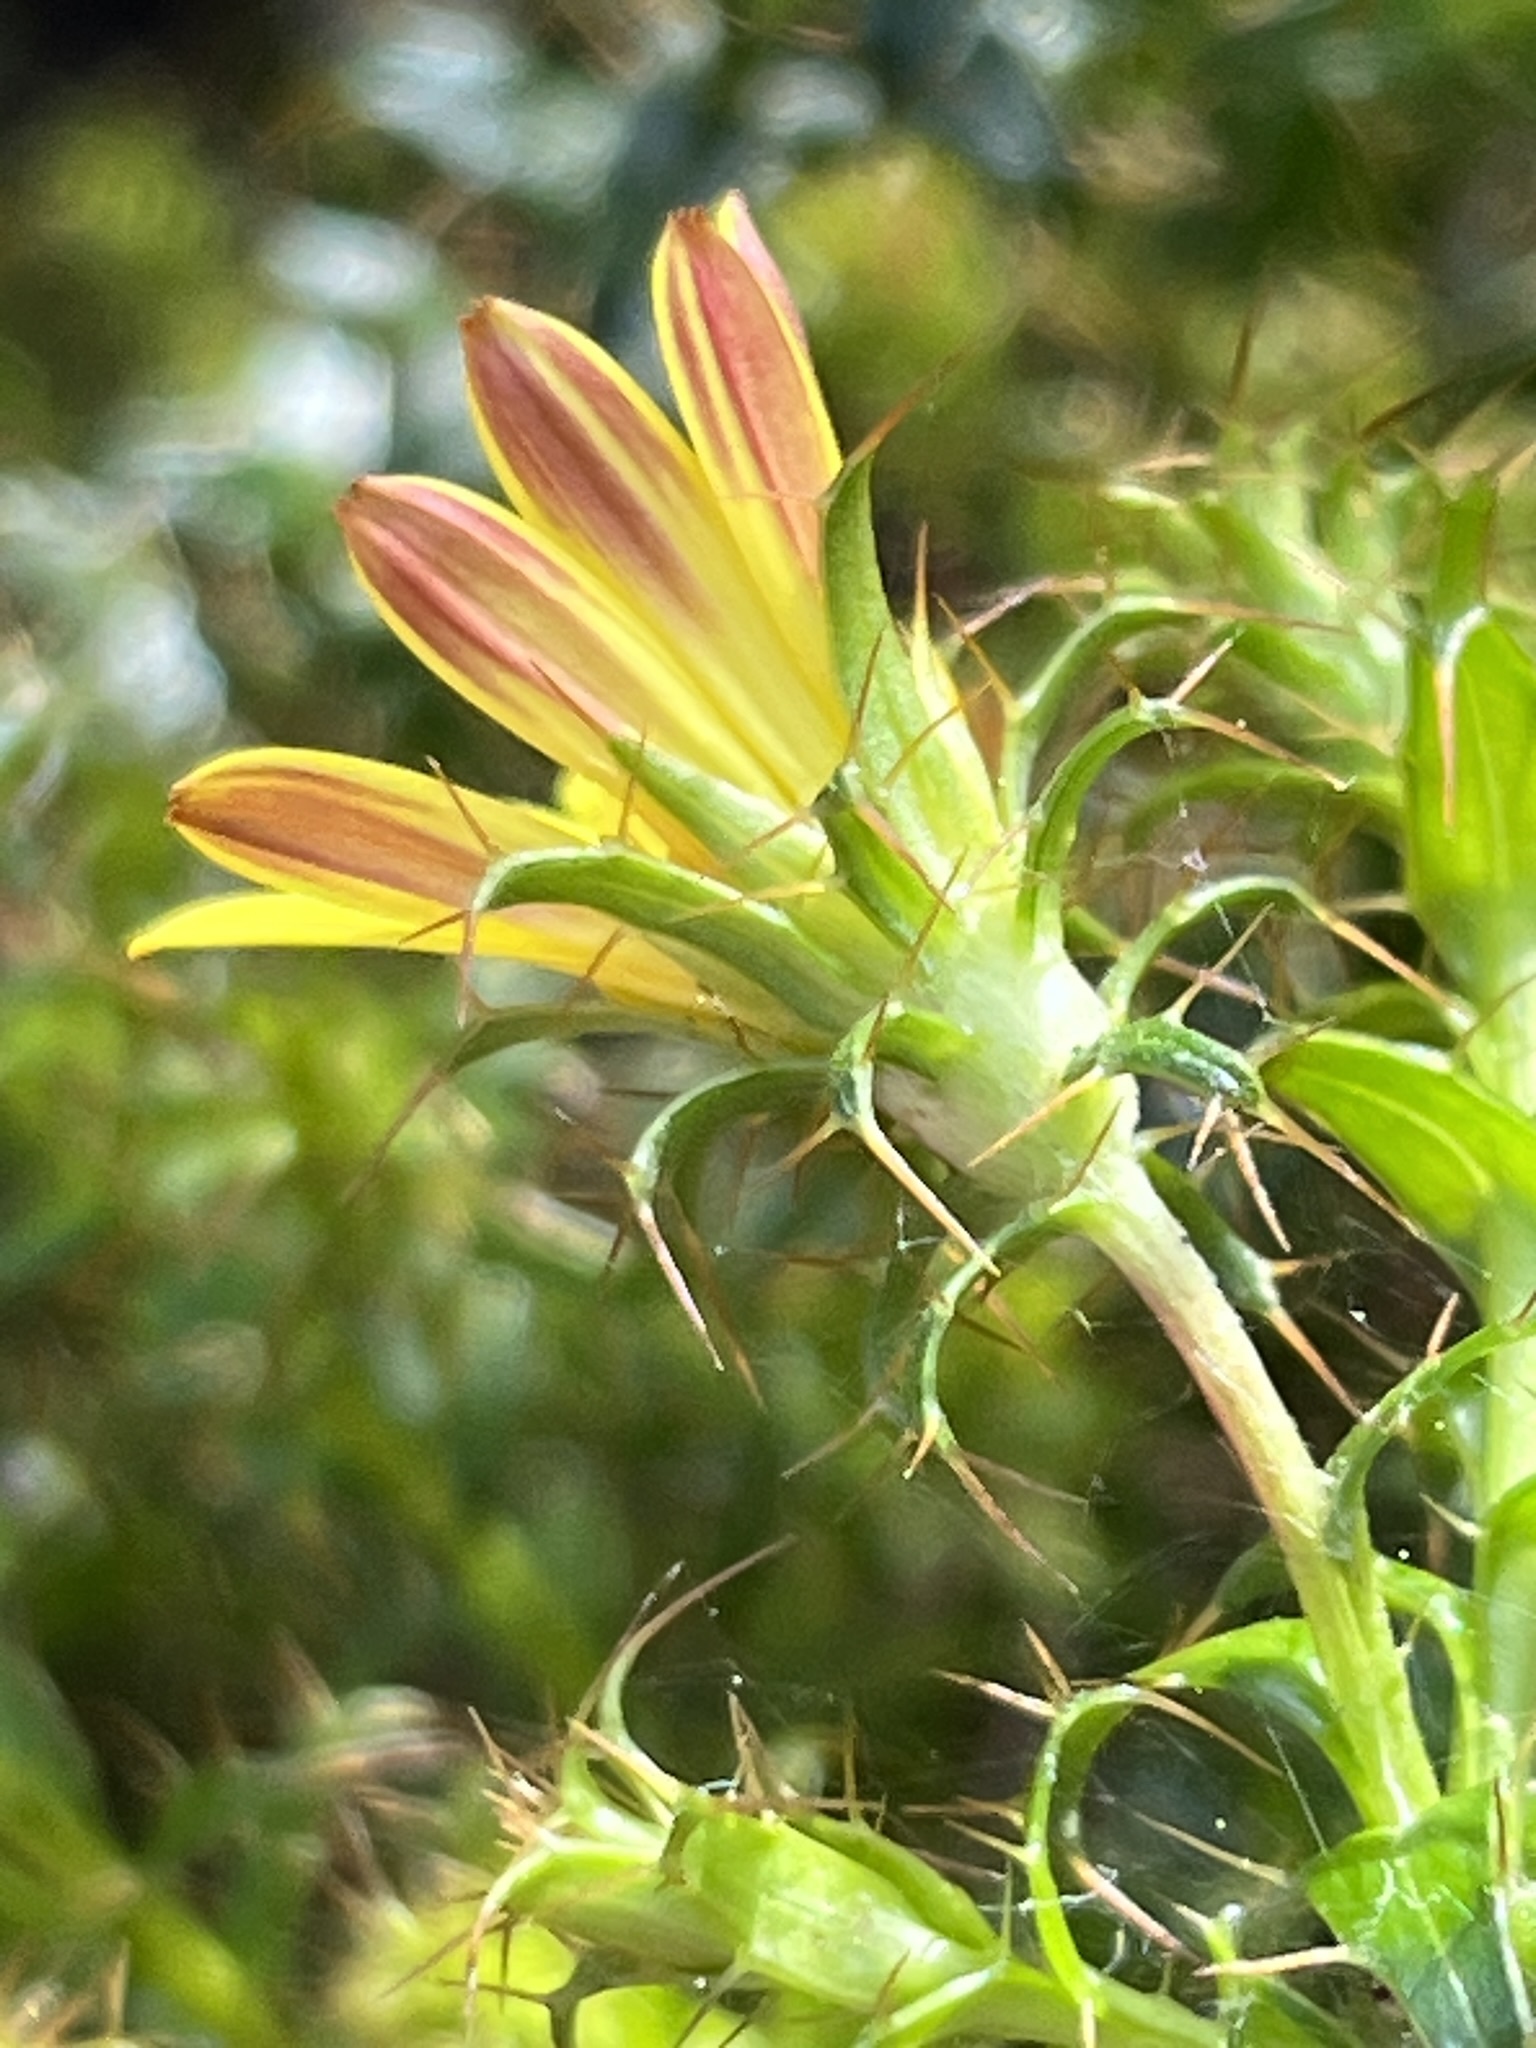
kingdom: Plantae
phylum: Tracheophyta
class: Magnoliopsida
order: Asterales
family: Asteraceae
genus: Cullumia
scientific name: Cullumia setosa
